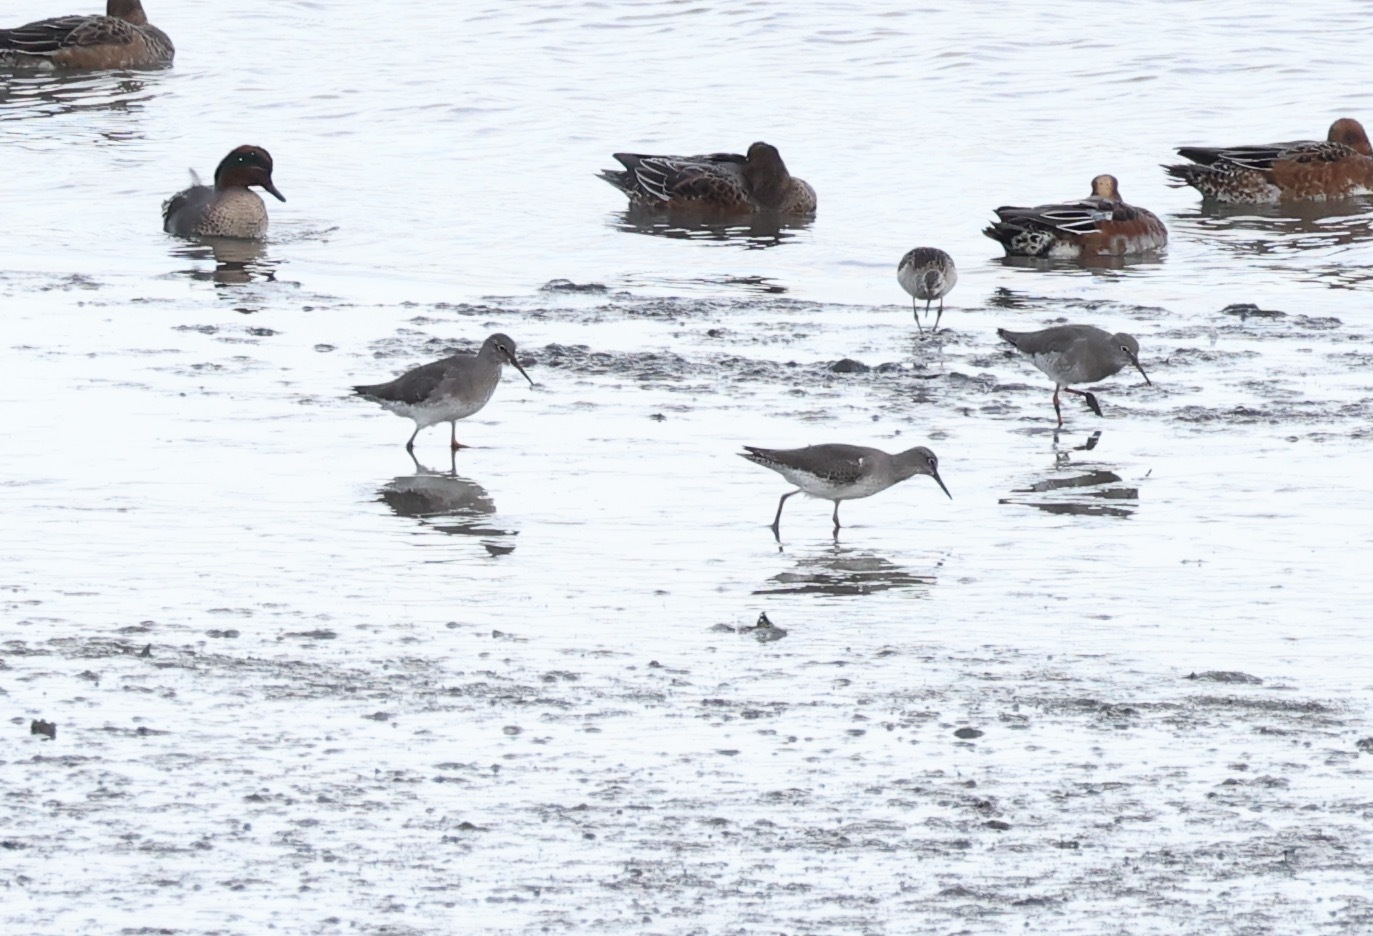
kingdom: Animalia
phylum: Chordata
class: Aves
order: Charadriiformes
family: Scolopacidae
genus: Tringa
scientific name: Tringa totanus
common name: Common redshank
